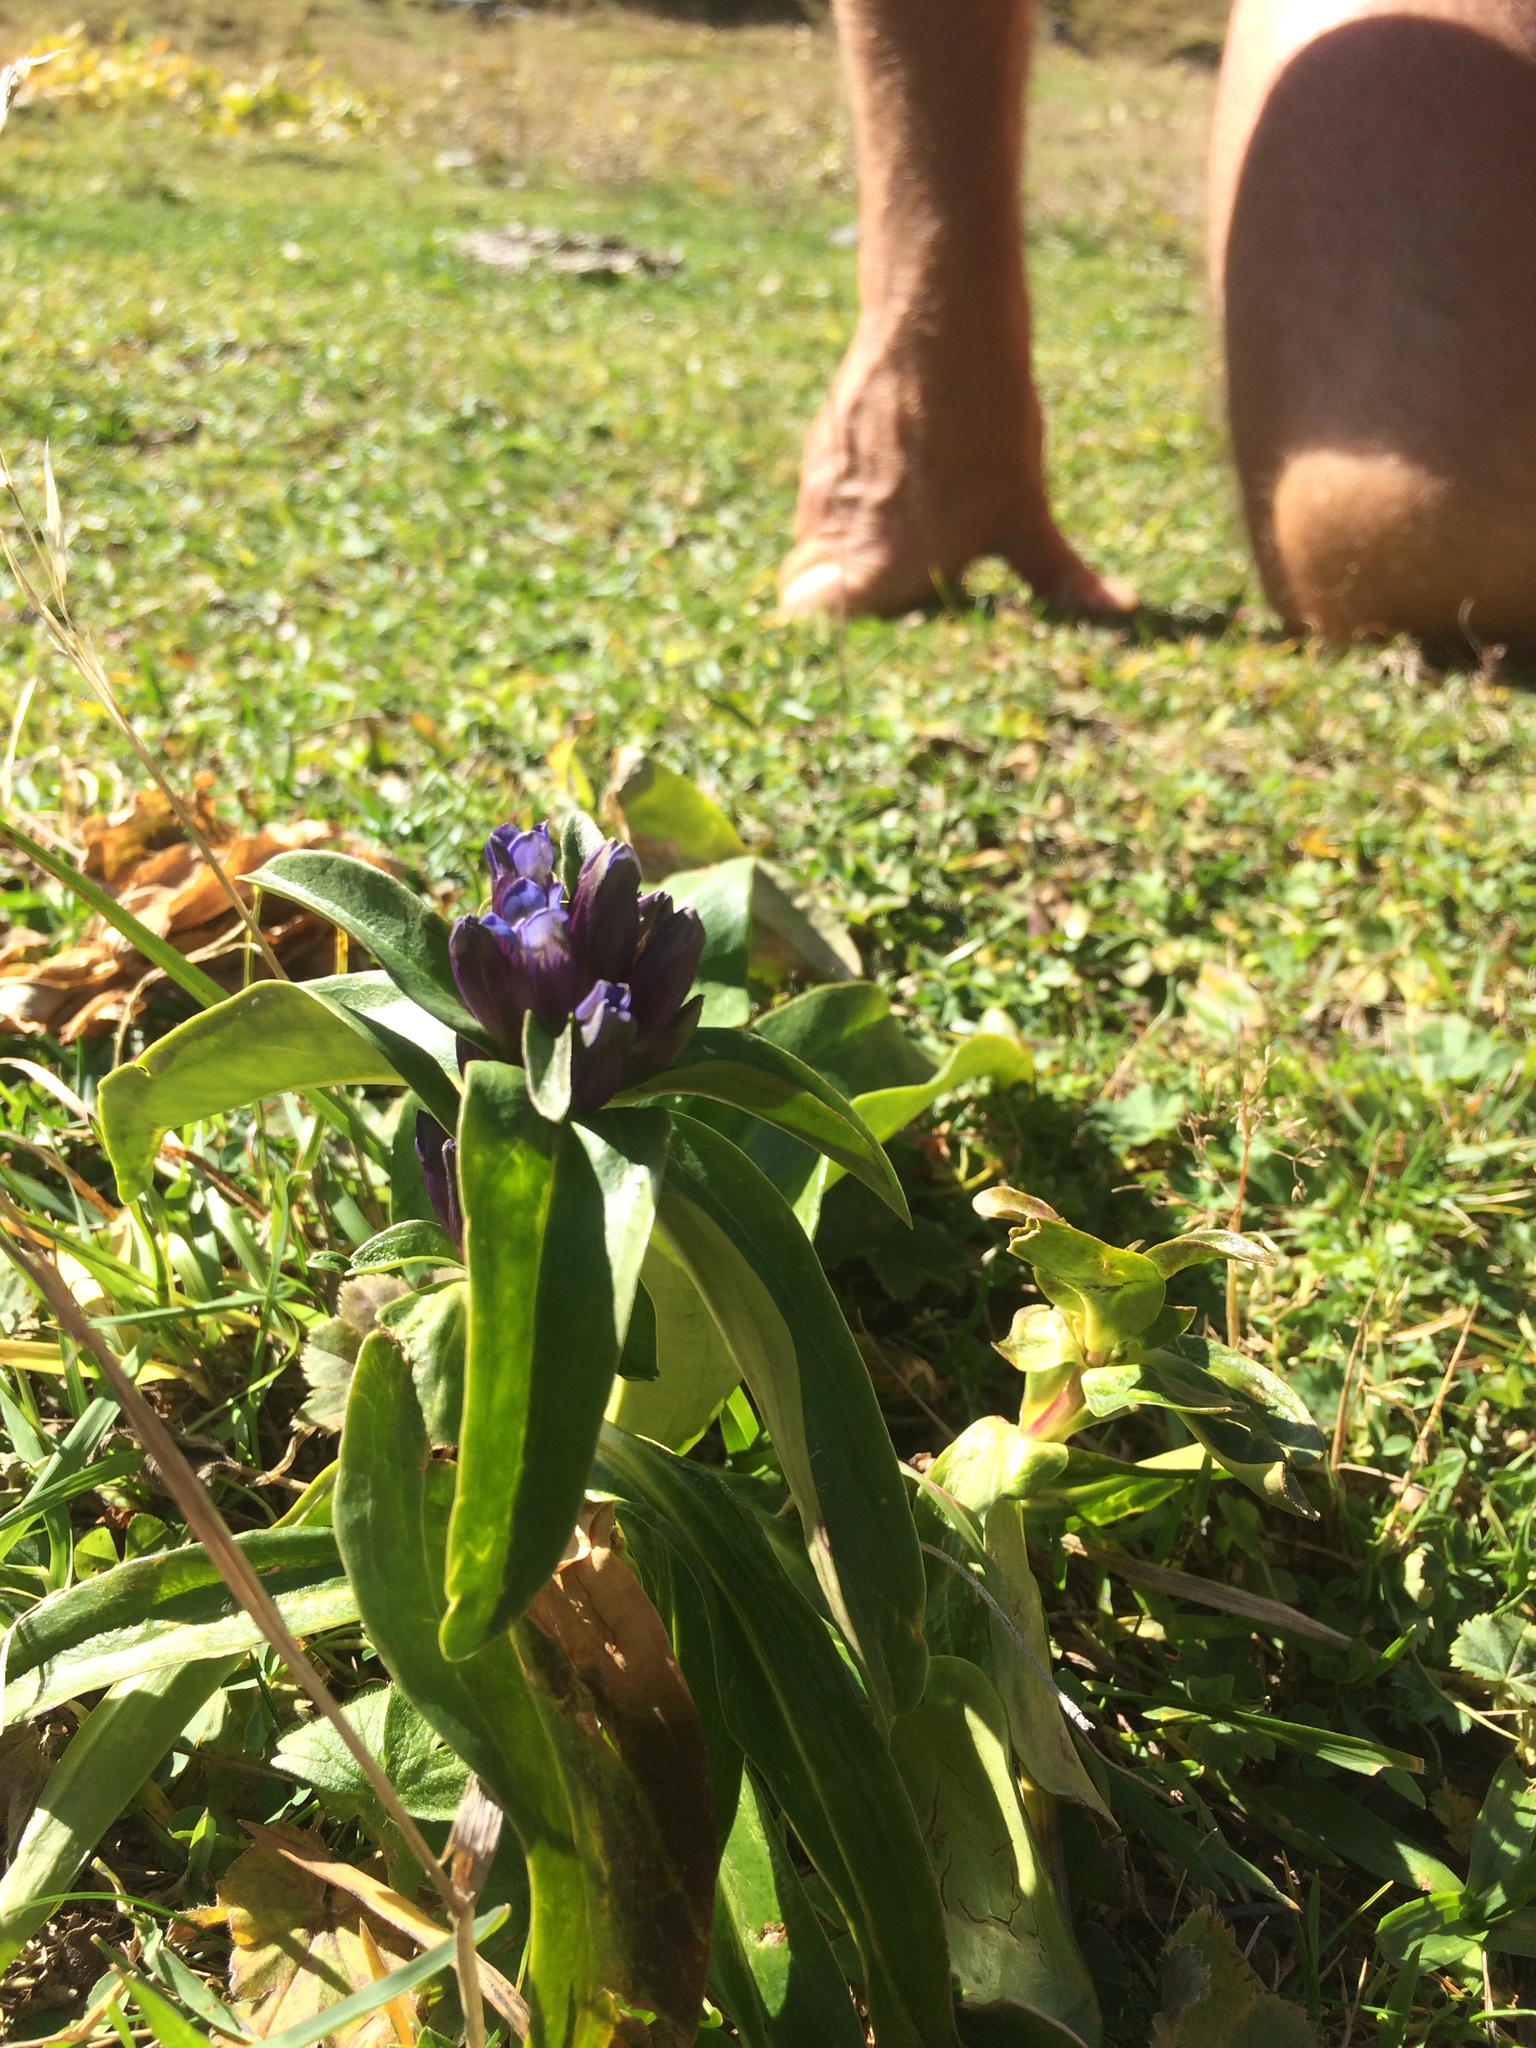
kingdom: Plantae
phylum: Tracheophyta
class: Magnoliopsida
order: Gentianales
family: Gentianaceae
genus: Gentiana
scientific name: Gentiana cruciata
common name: Cross gentian
